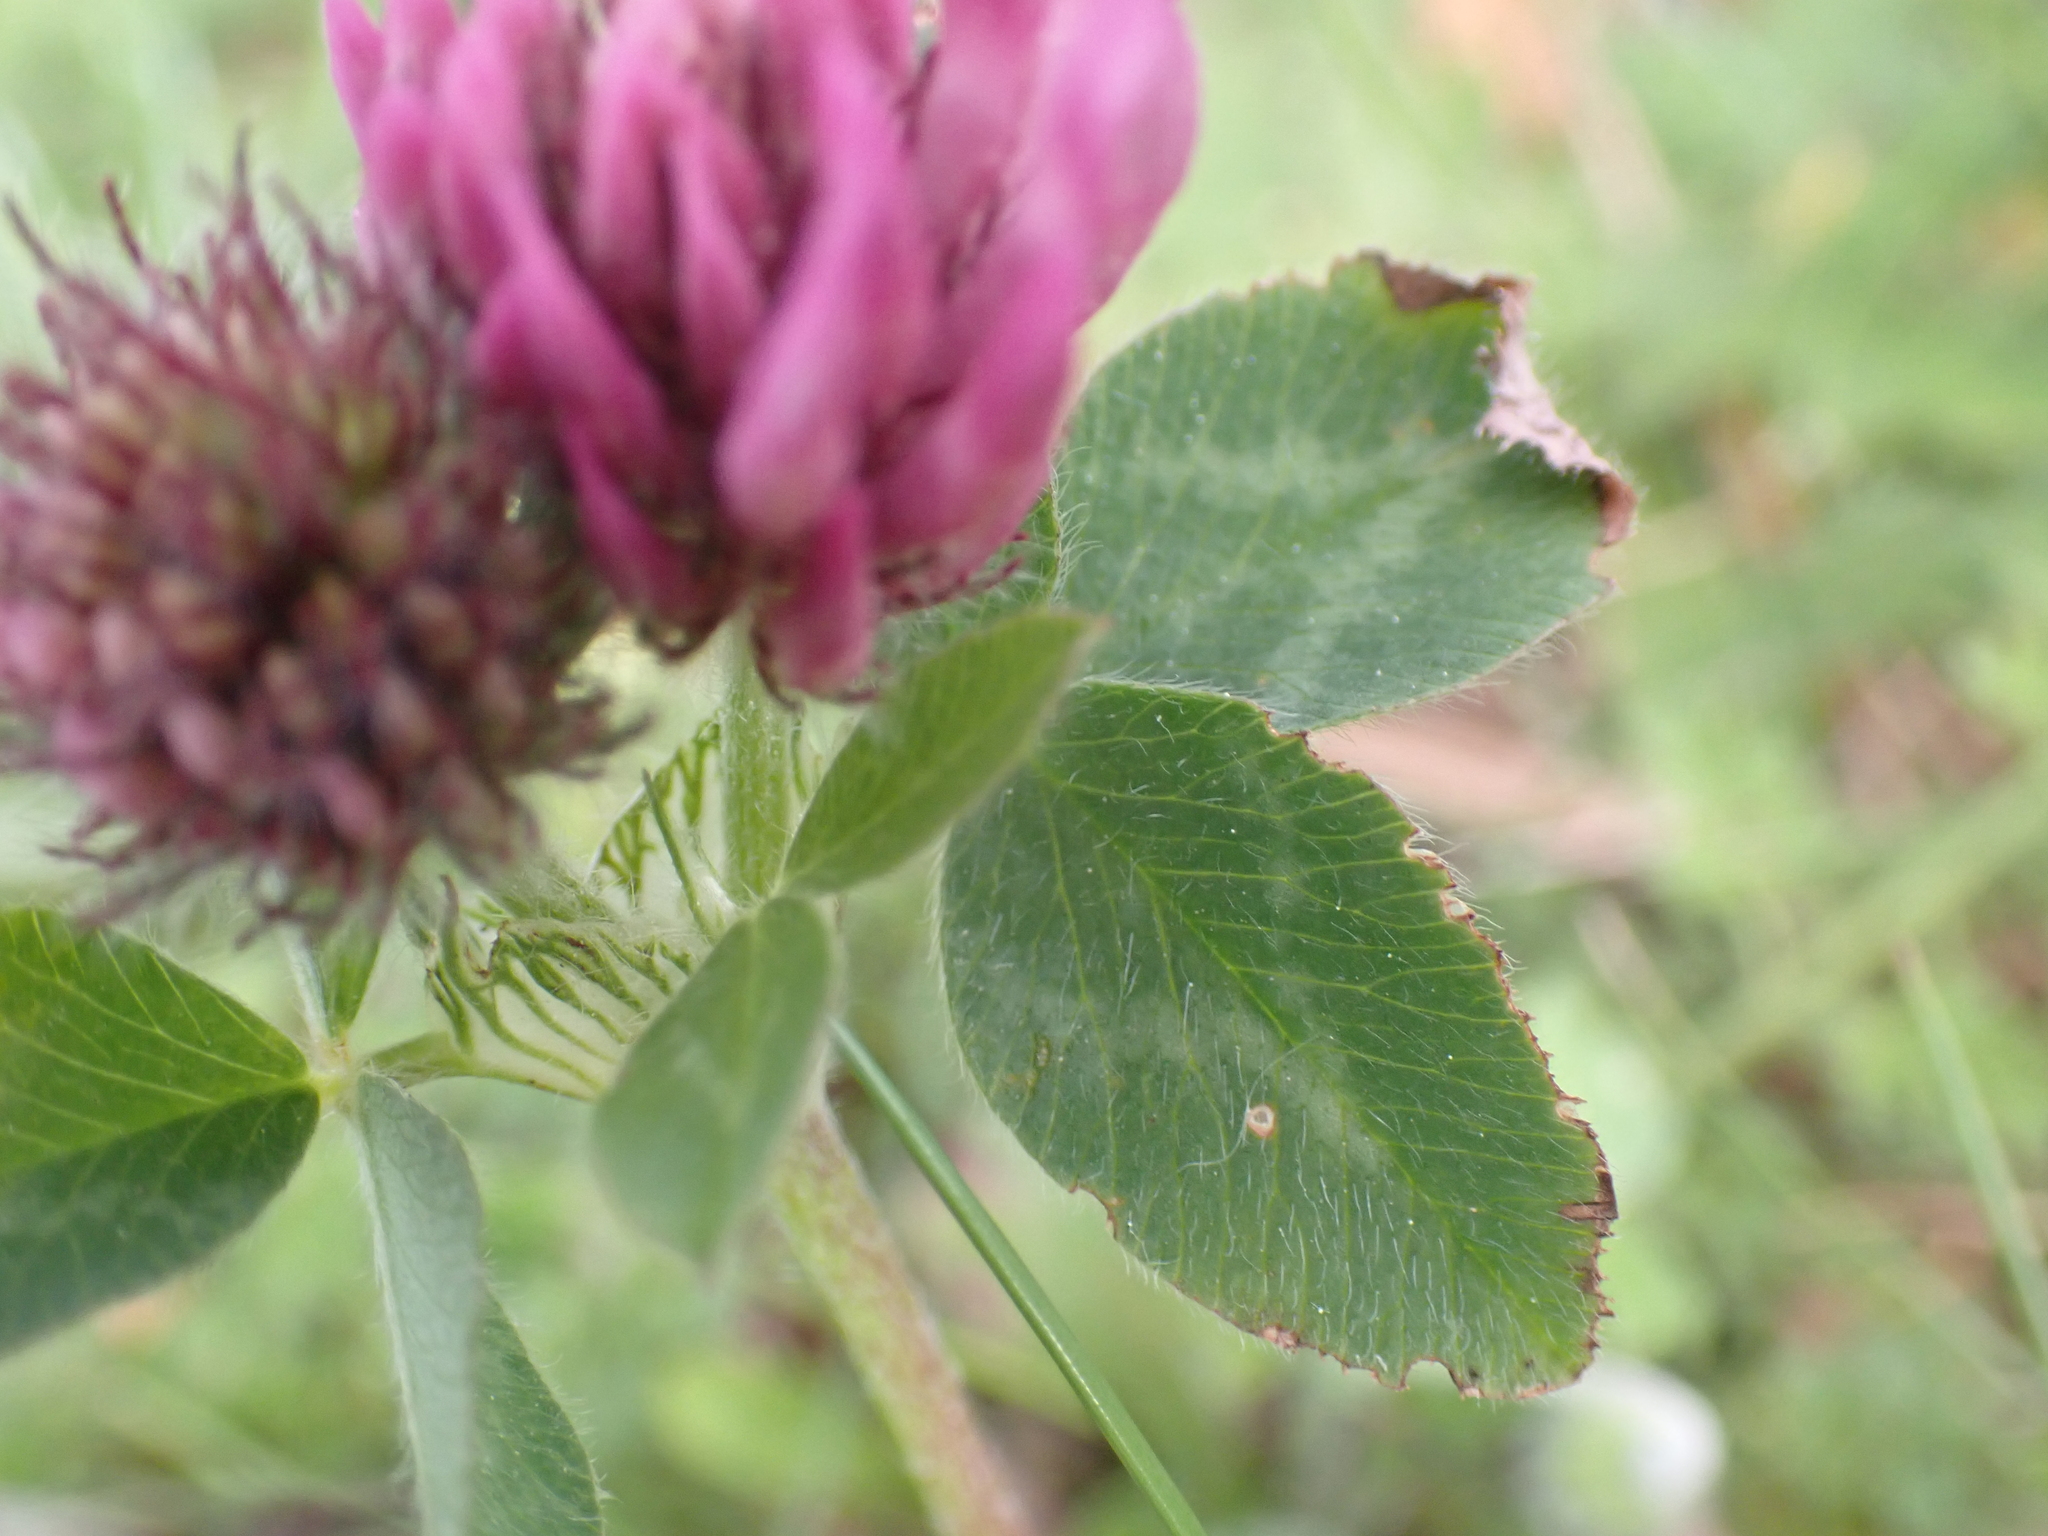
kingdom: Plantae
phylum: Tracheophyta
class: Magnoliopsida
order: Fabales
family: Fabaceae
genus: Trifolium
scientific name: Trifolium pratense
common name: Red clover
